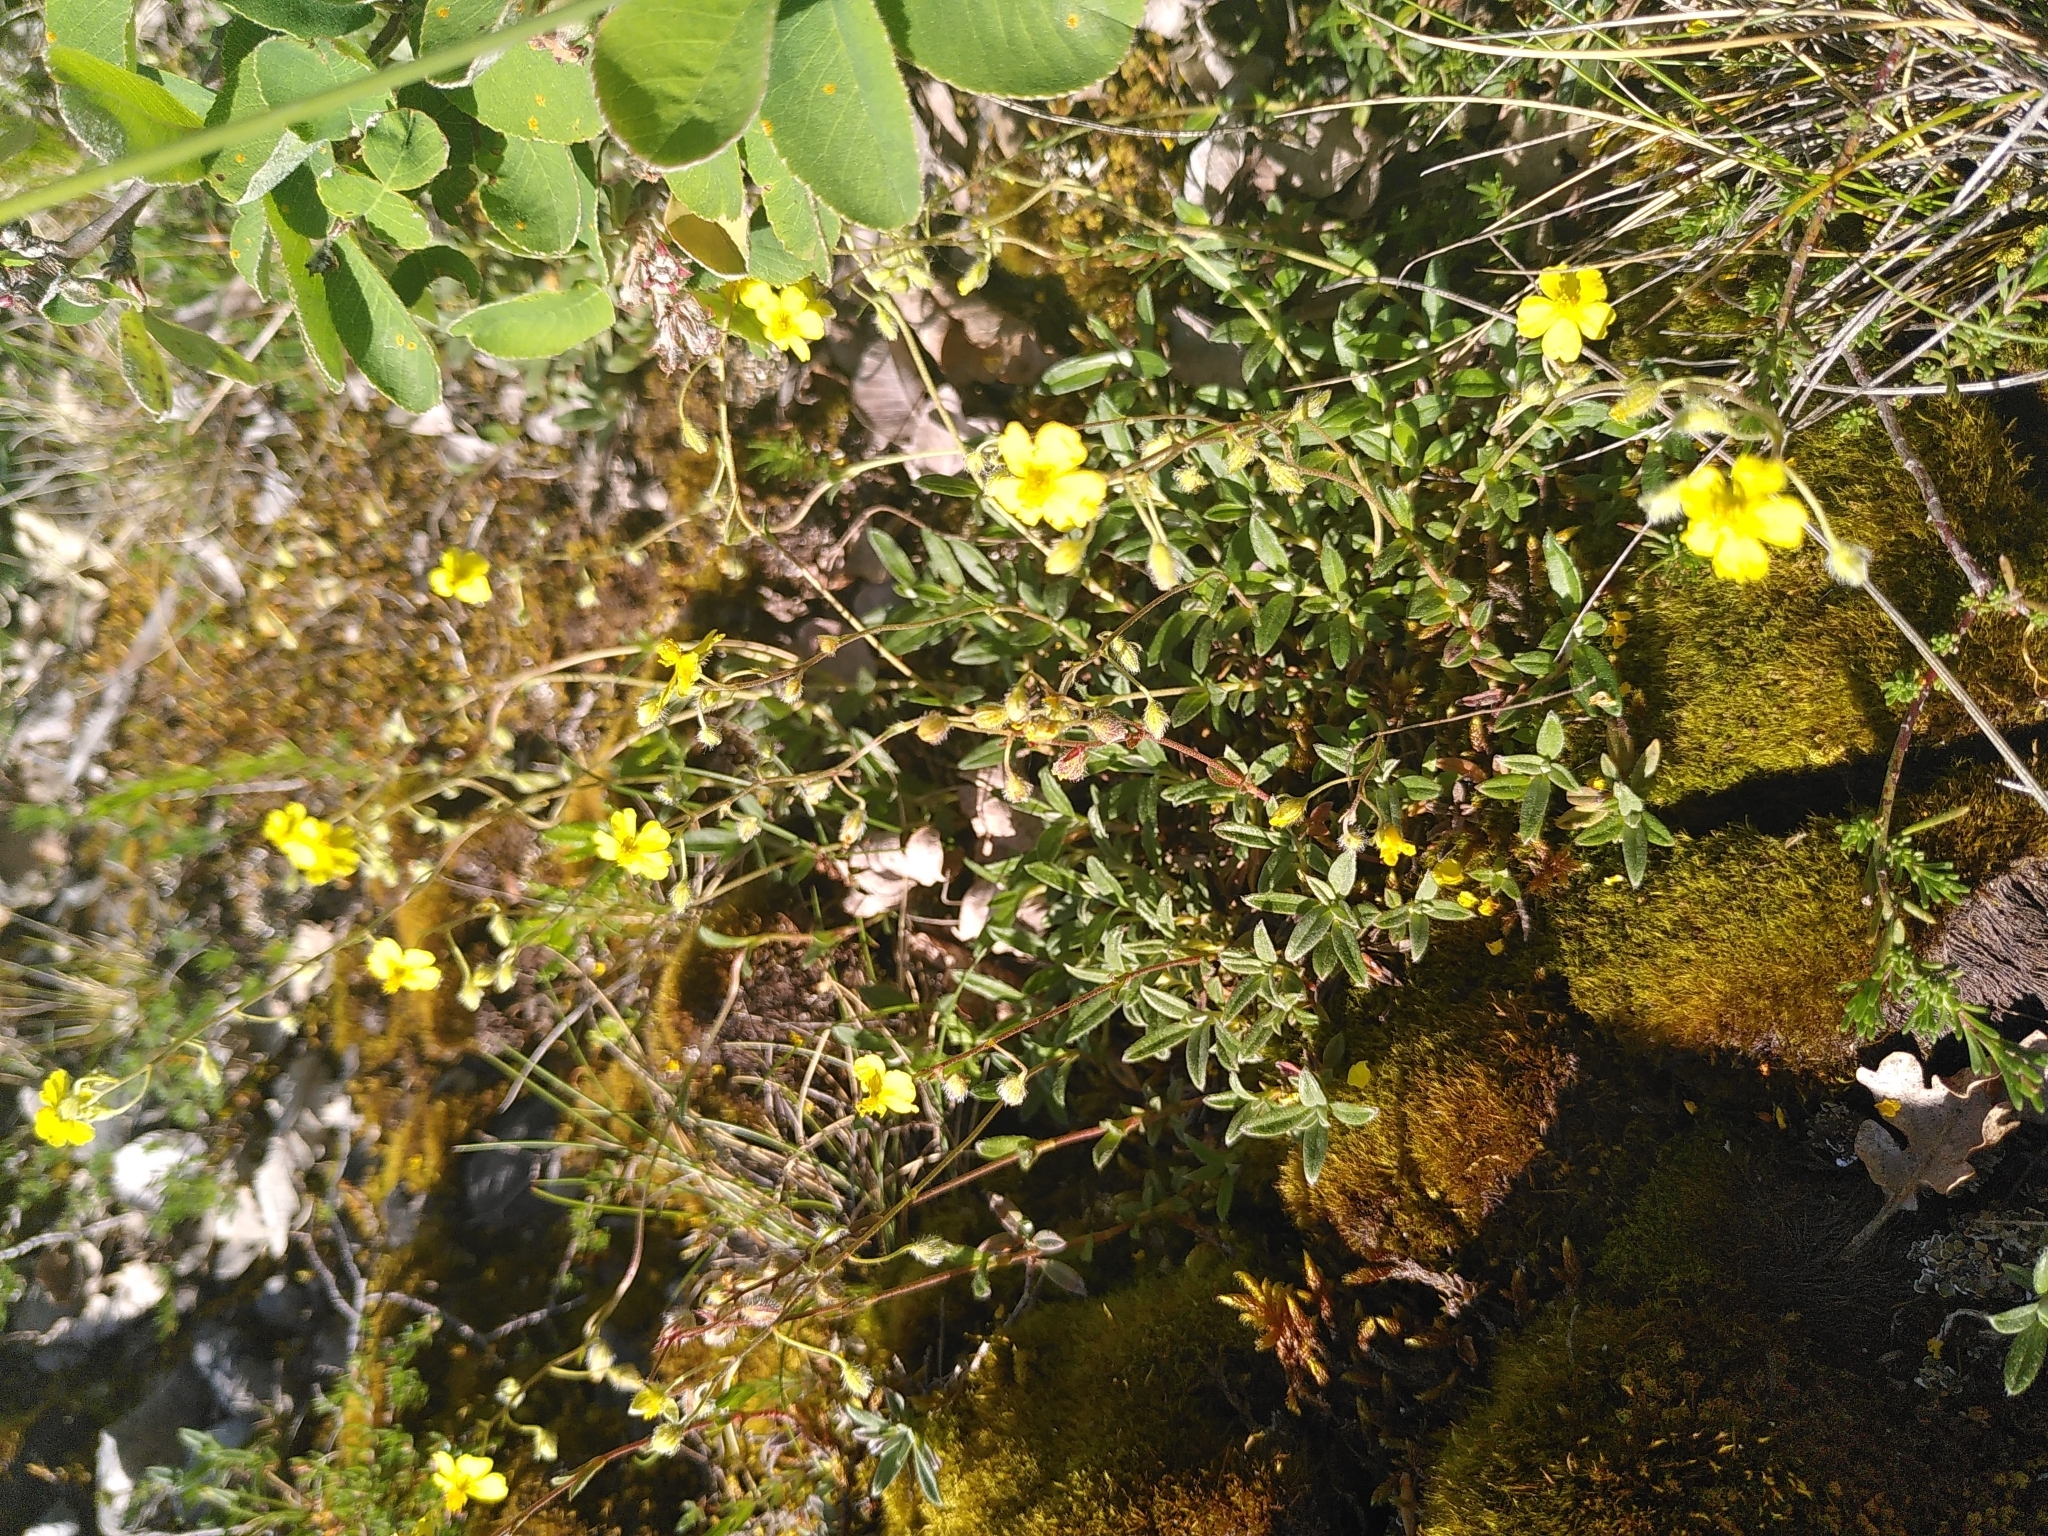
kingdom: Plantae
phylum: Tracheophyta
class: Magnoliopsida
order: Malvales
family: Cistaceae
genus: Helianthemum
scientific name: Helianthemum canum
